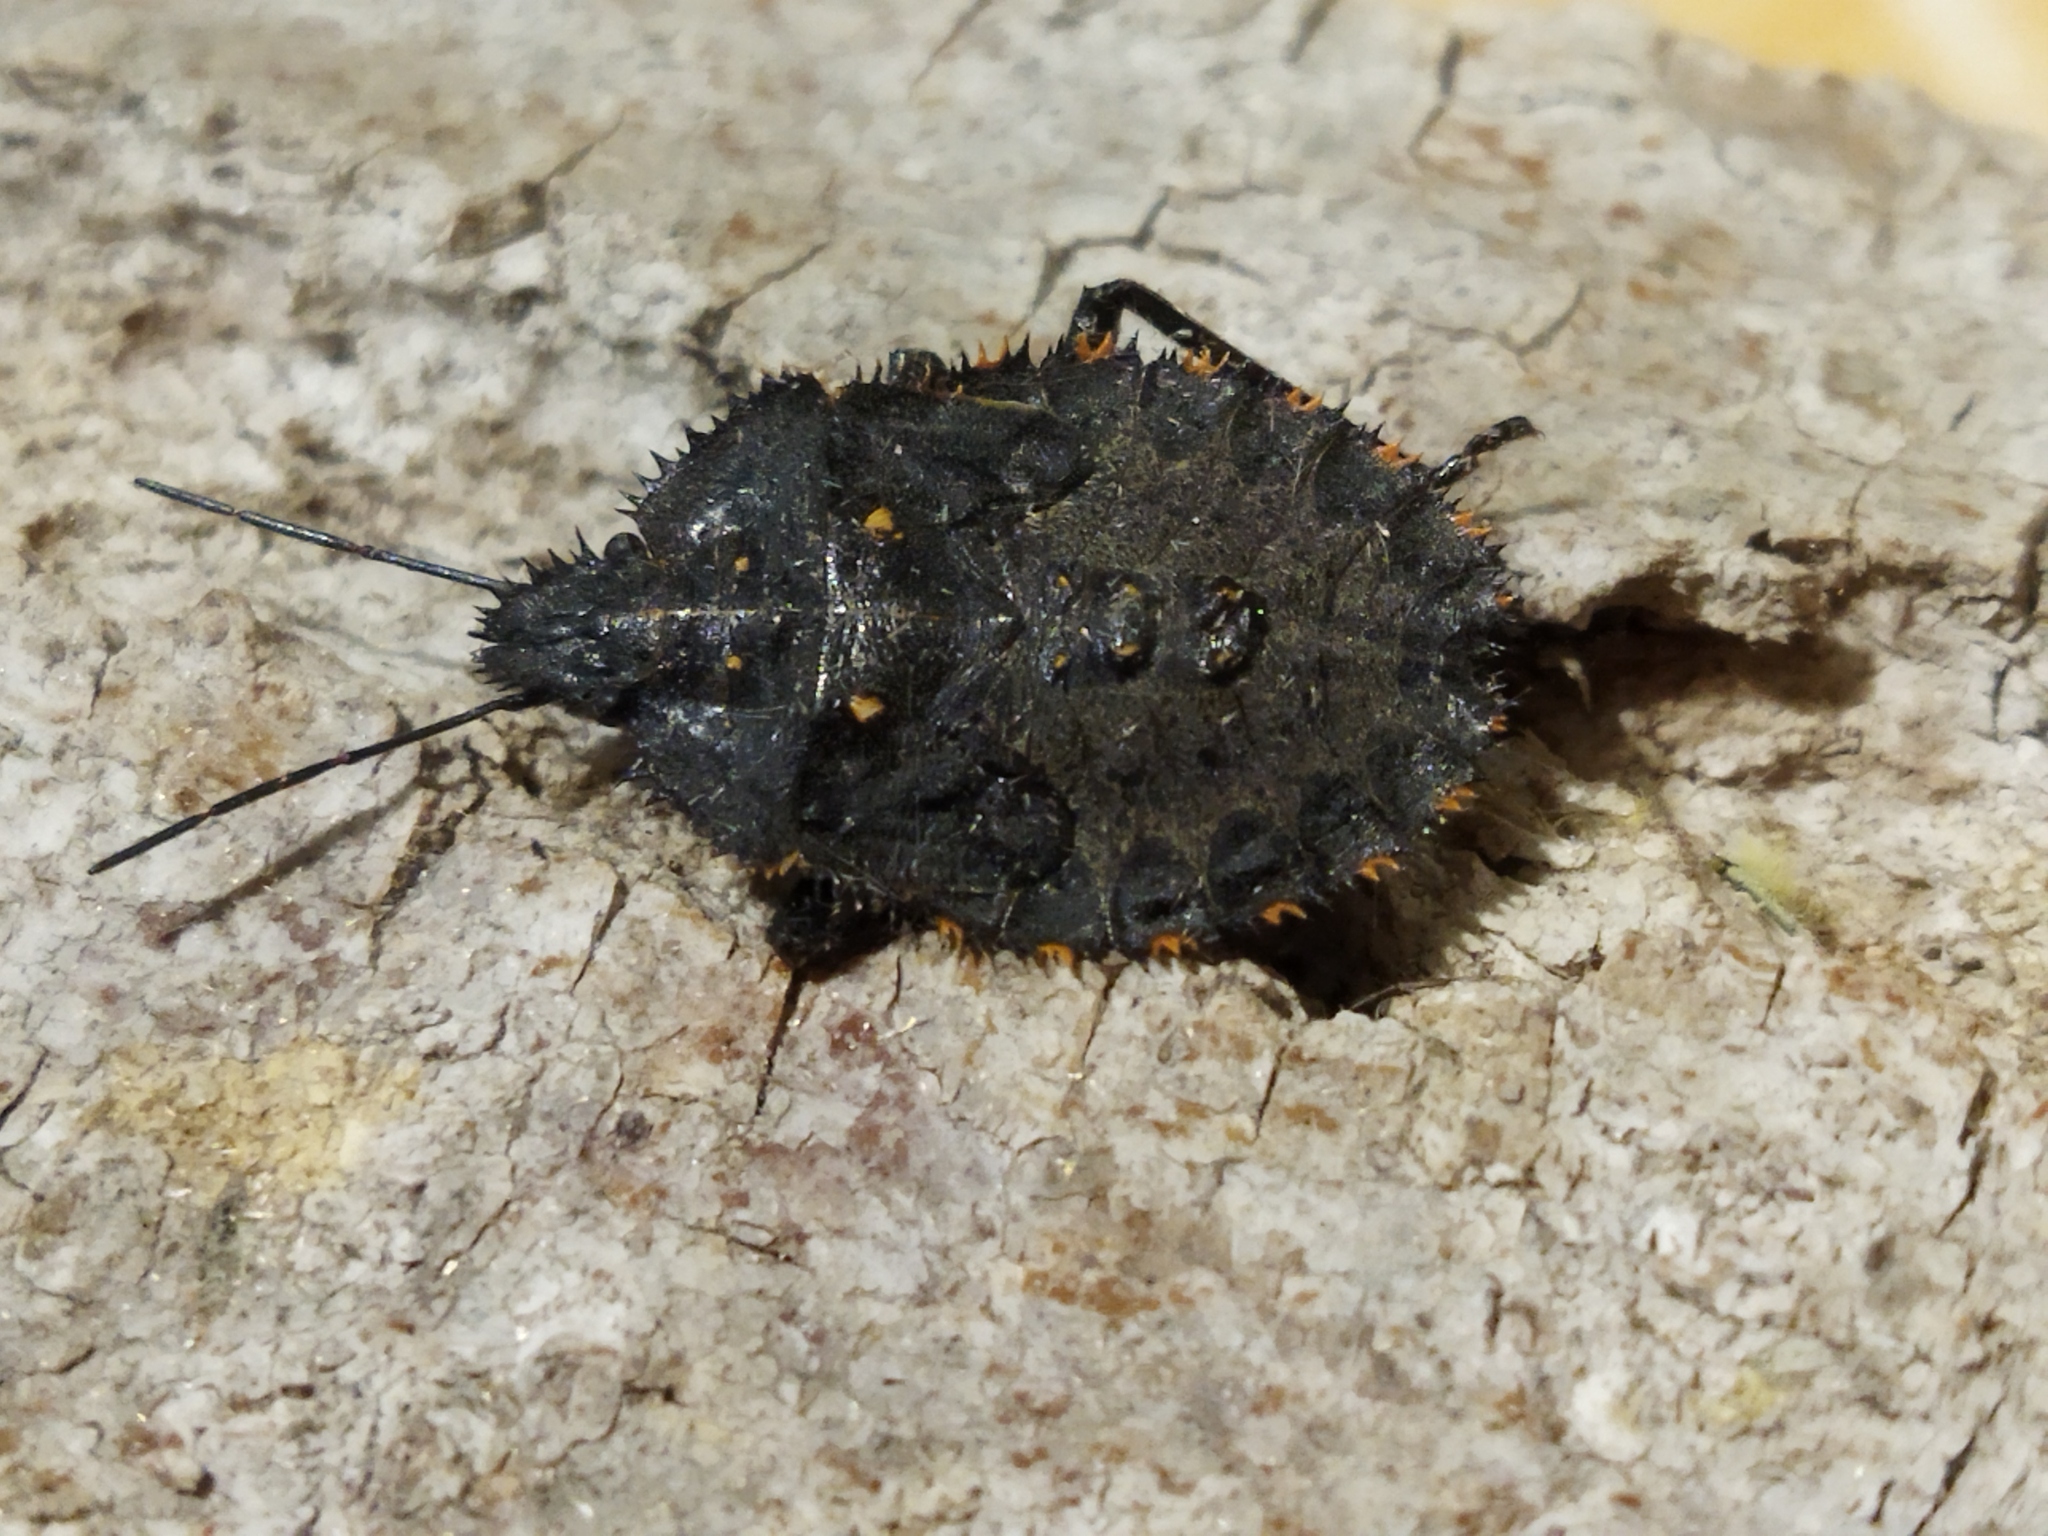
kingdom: Animalia
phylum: Arthropoda
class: Insecta
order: Hemiptera
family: Pentatomidae
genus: Mustha
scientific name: Mustha spinosula
